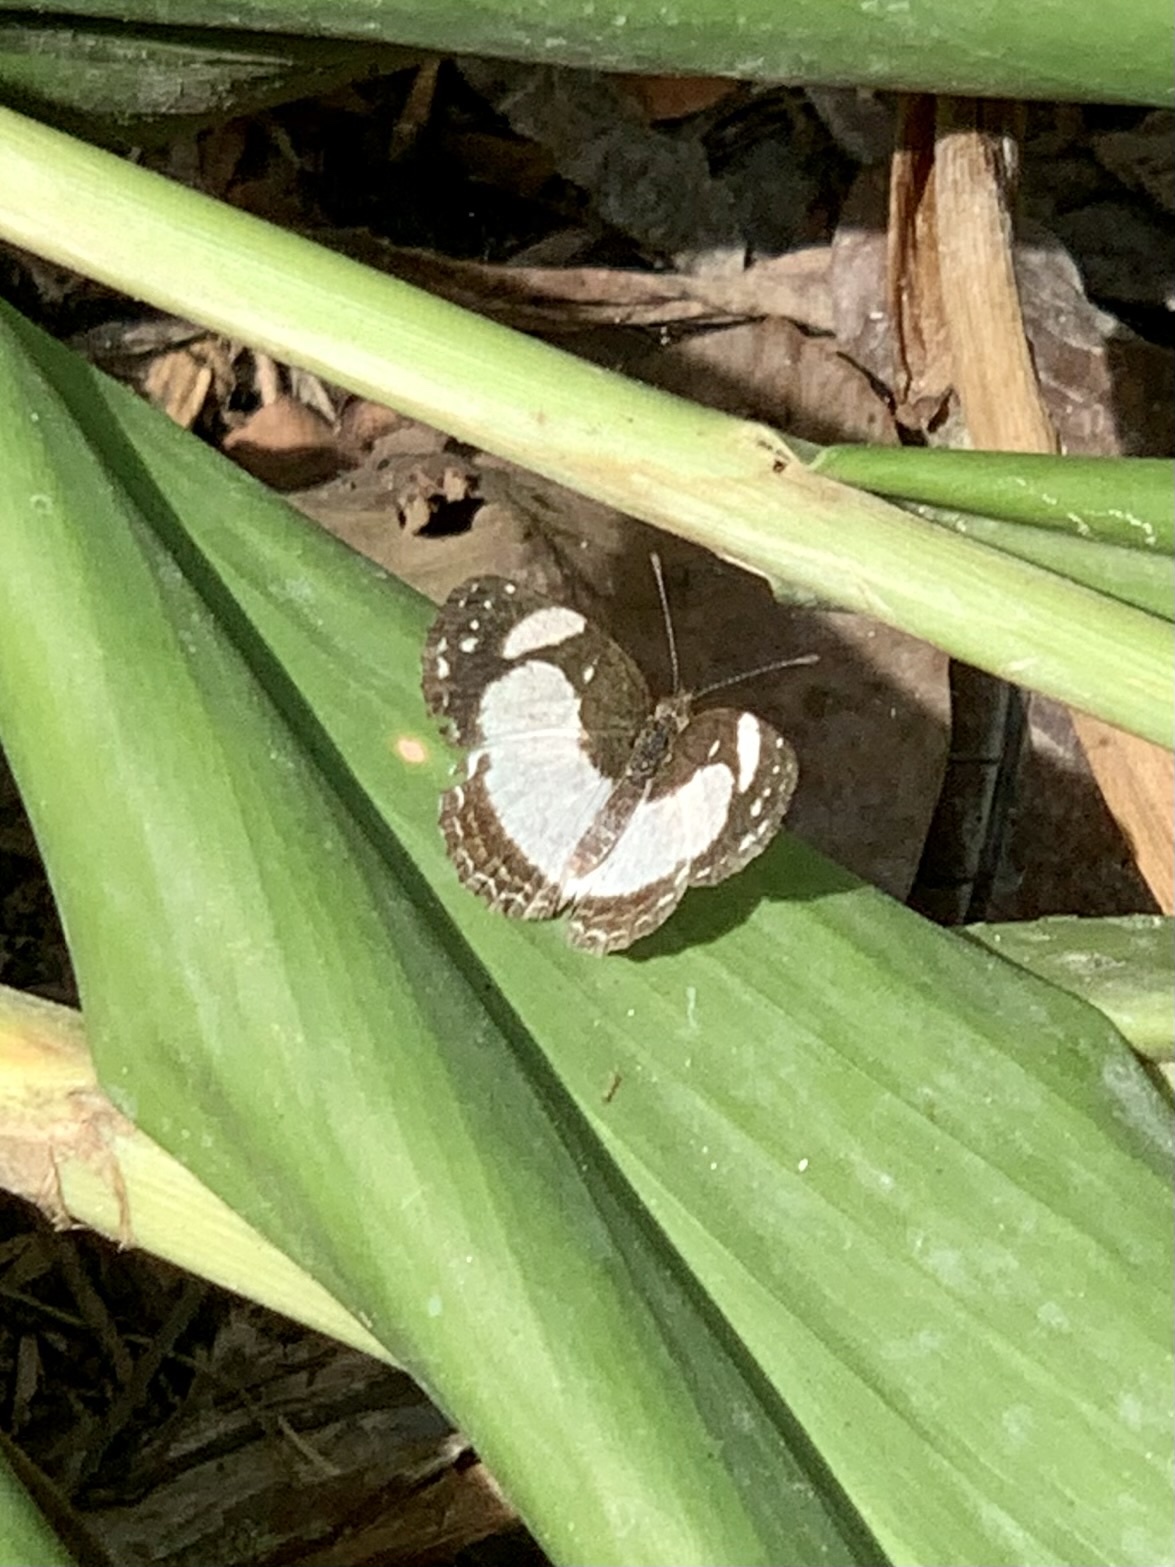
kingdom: Animalia
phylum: Arthropoda
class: Insecta
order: Lepidoptera
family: Nymphalidae
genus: Janatella
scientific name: Janatella leucodesma
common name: Whitened crescent
